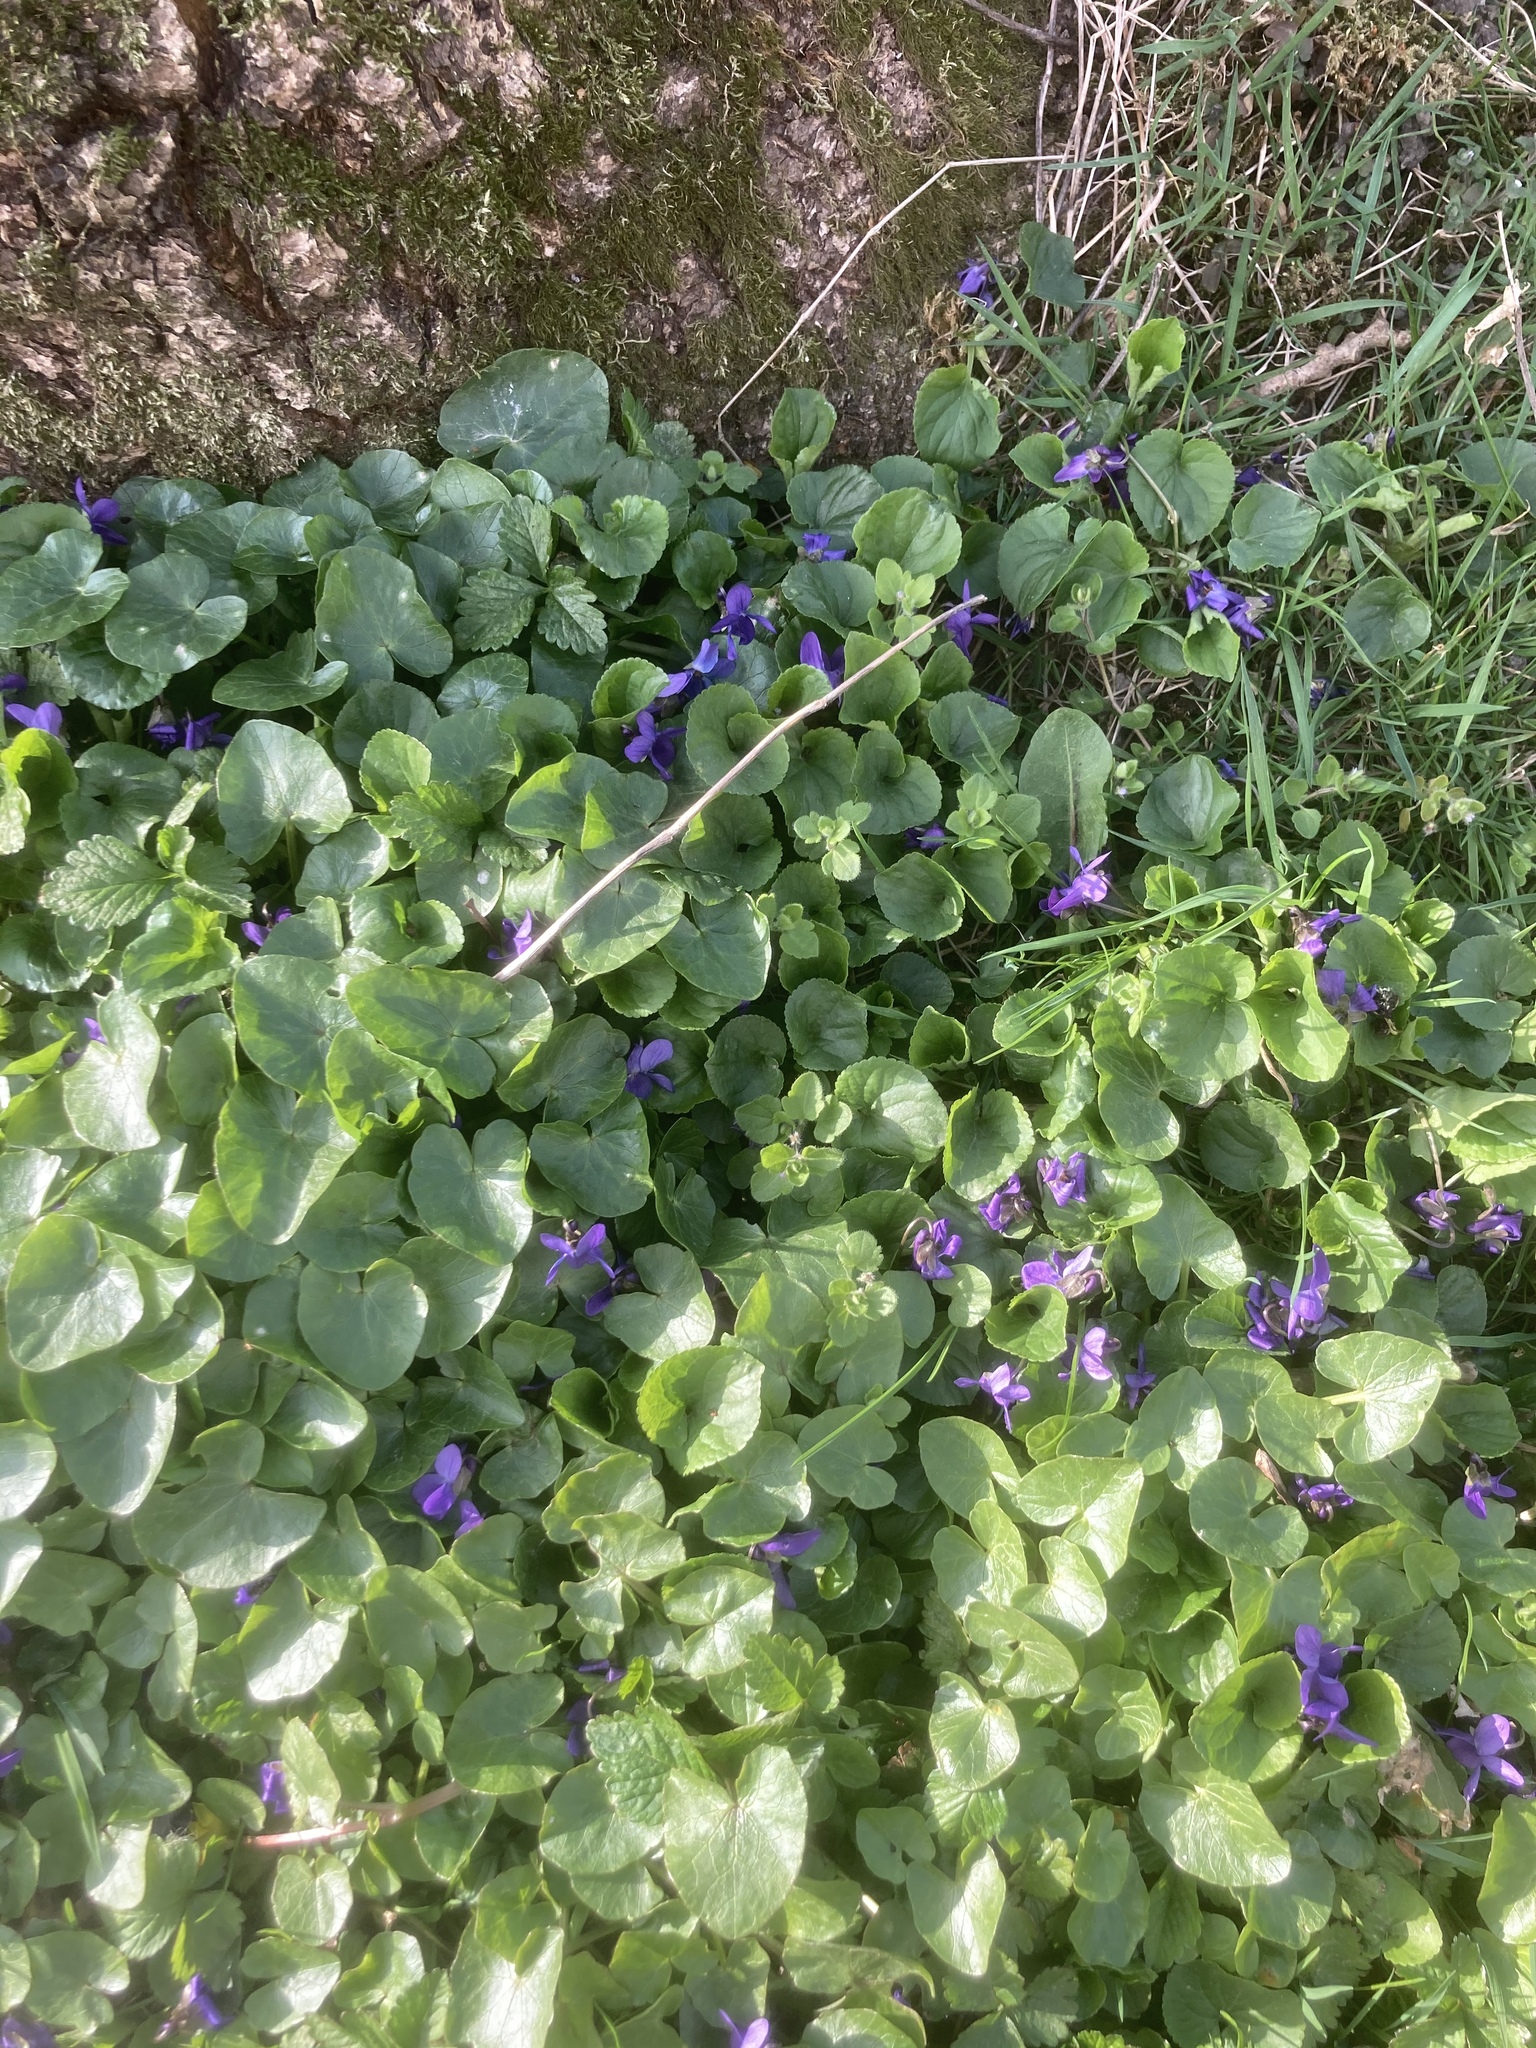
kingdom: Plantae
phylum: Tracheophyta
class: Magnoliopsida
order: Malpighiales
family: Violaceae
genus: Viola
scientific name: Viola odorata
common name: Sweet violet
